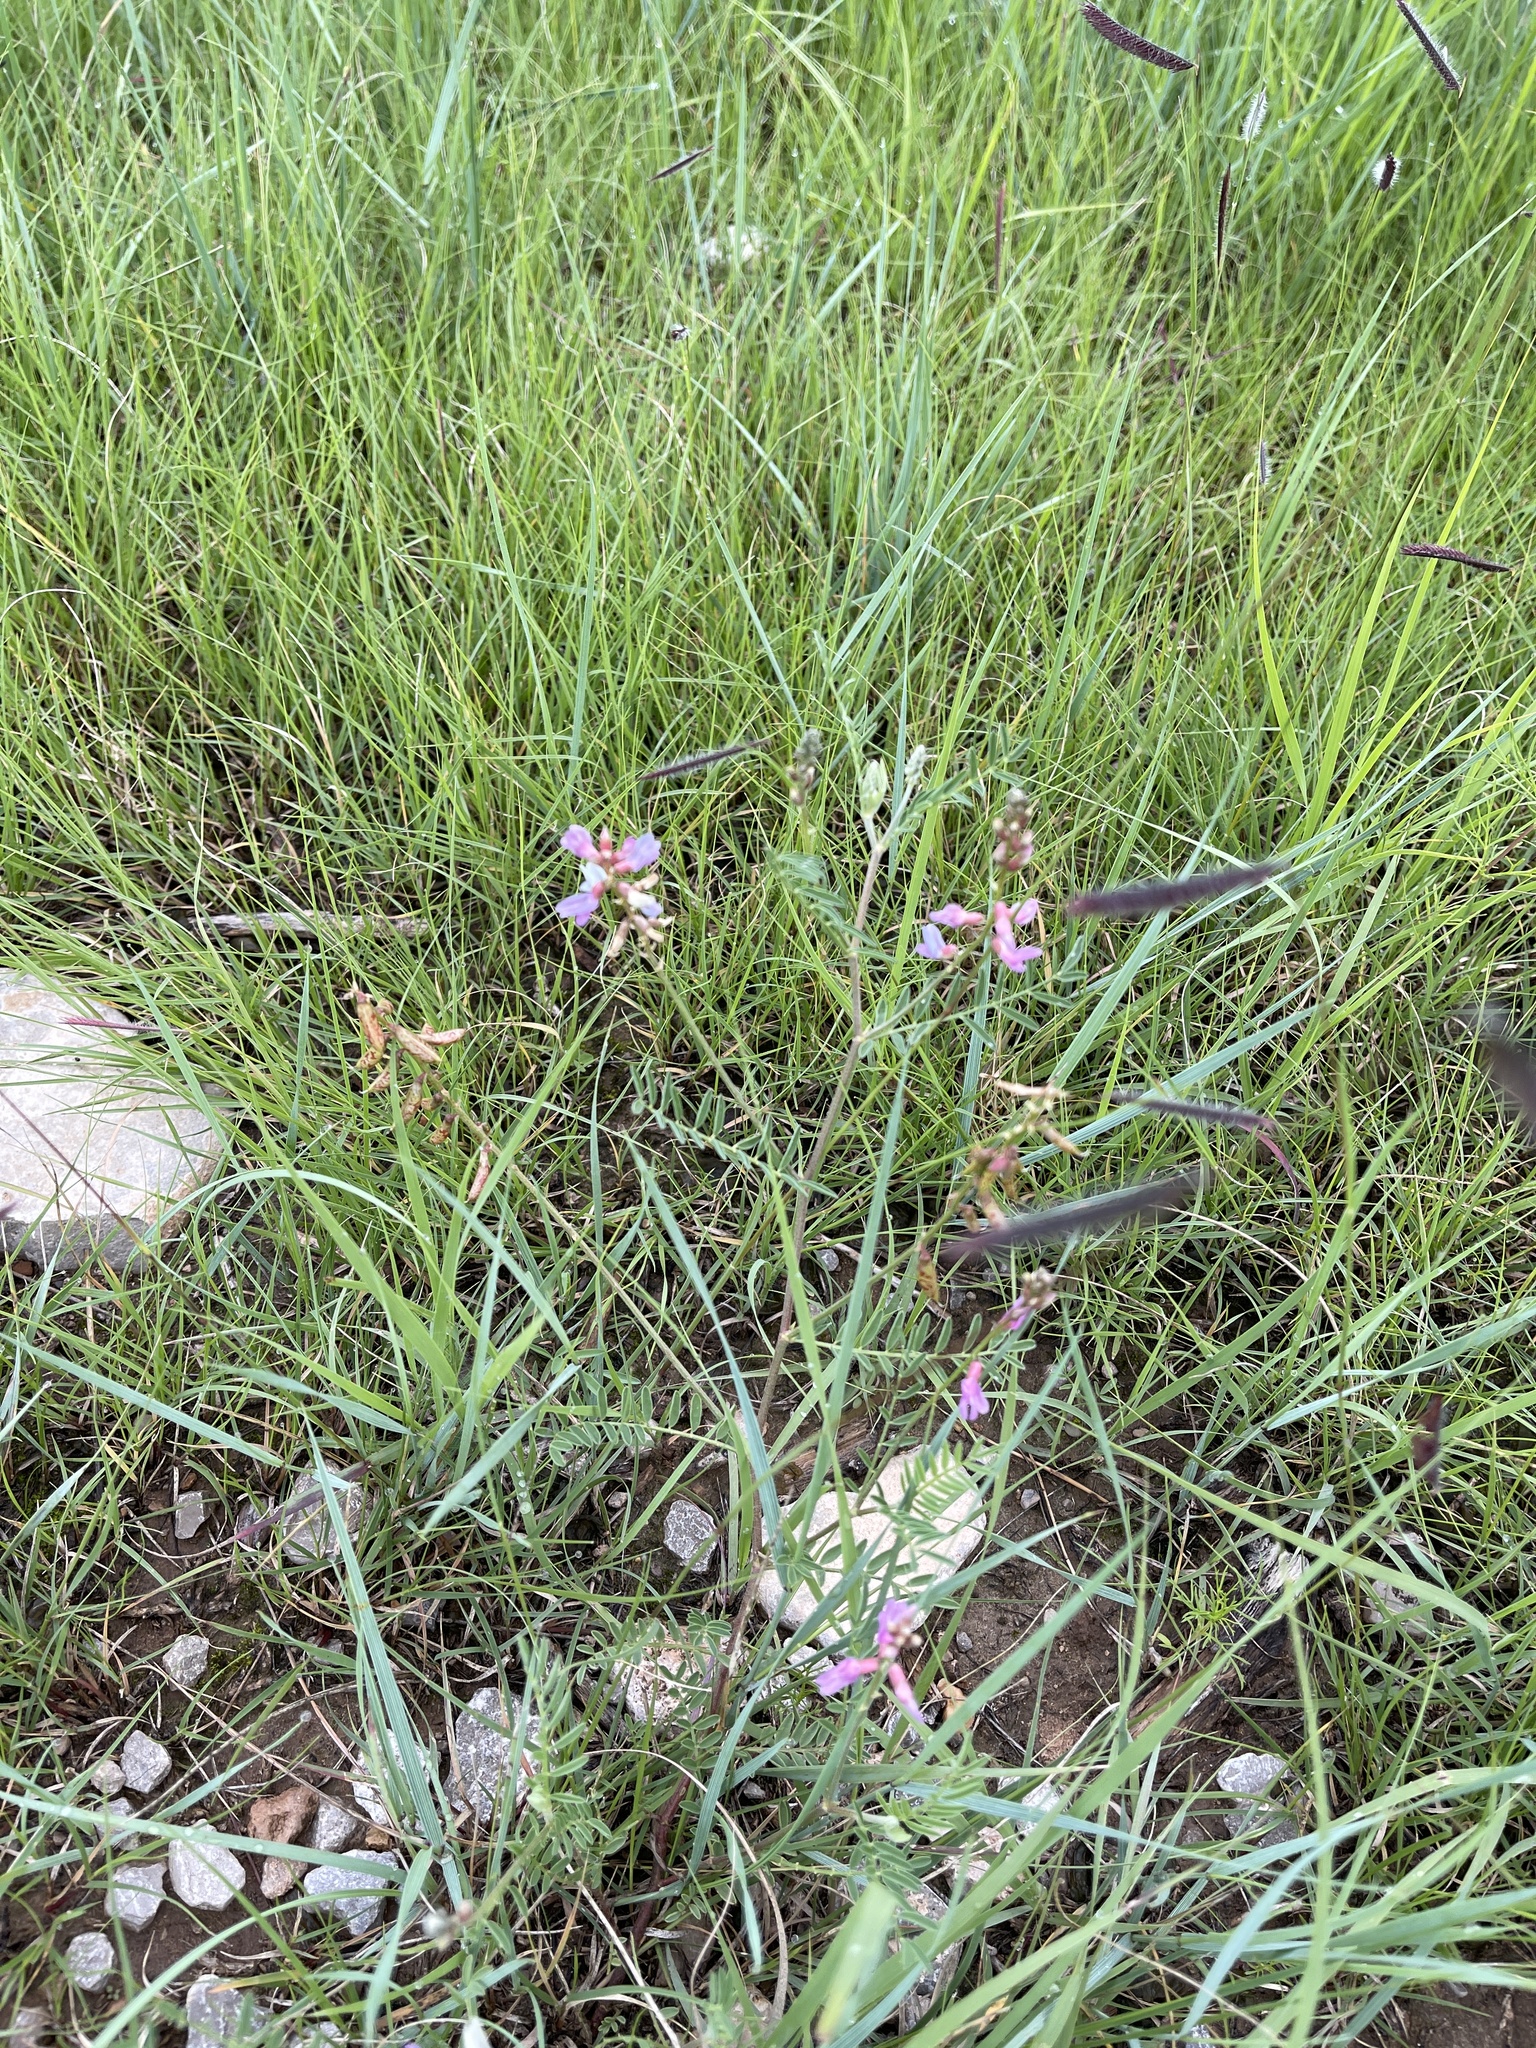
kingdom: Plantae
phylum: Tracheophyta
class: Magnoliopsida
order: Fabales
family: Fabaceae
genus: Astragalus
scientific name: Astragalus flexuosus
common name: Pliant milk-vetch
